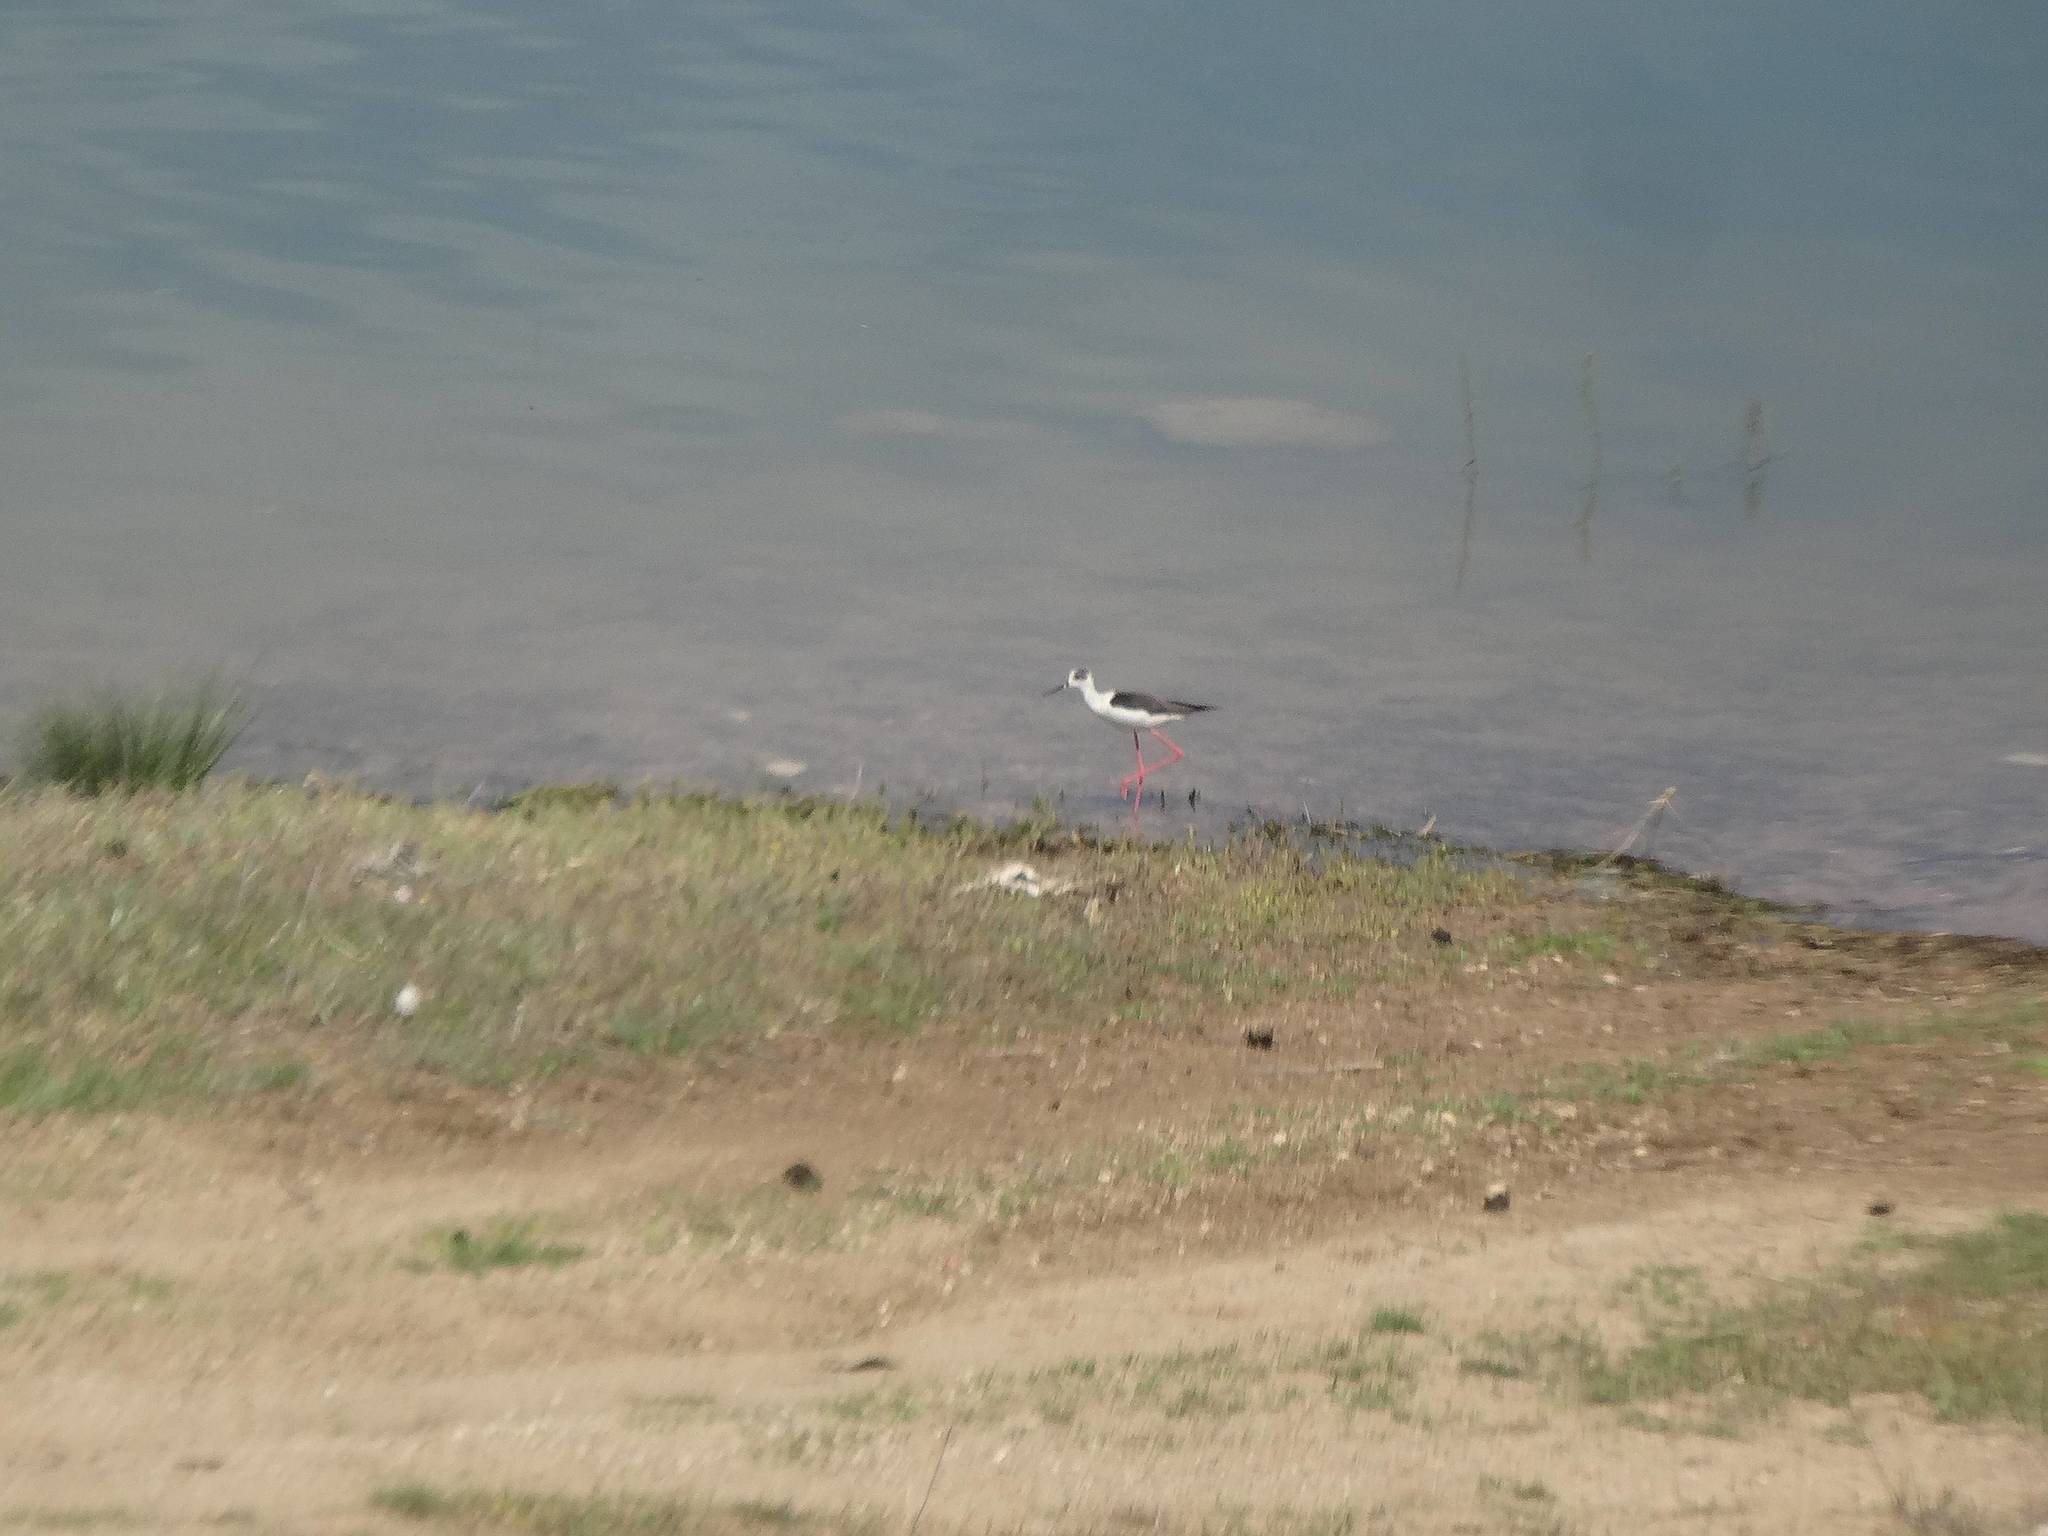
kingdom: Animalia
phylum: Chordata
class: Aves
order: Charadriiformes
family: Recurvirostridae
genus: Himantopus
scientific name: Himantopus himantopus
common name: Black-winged stilt
